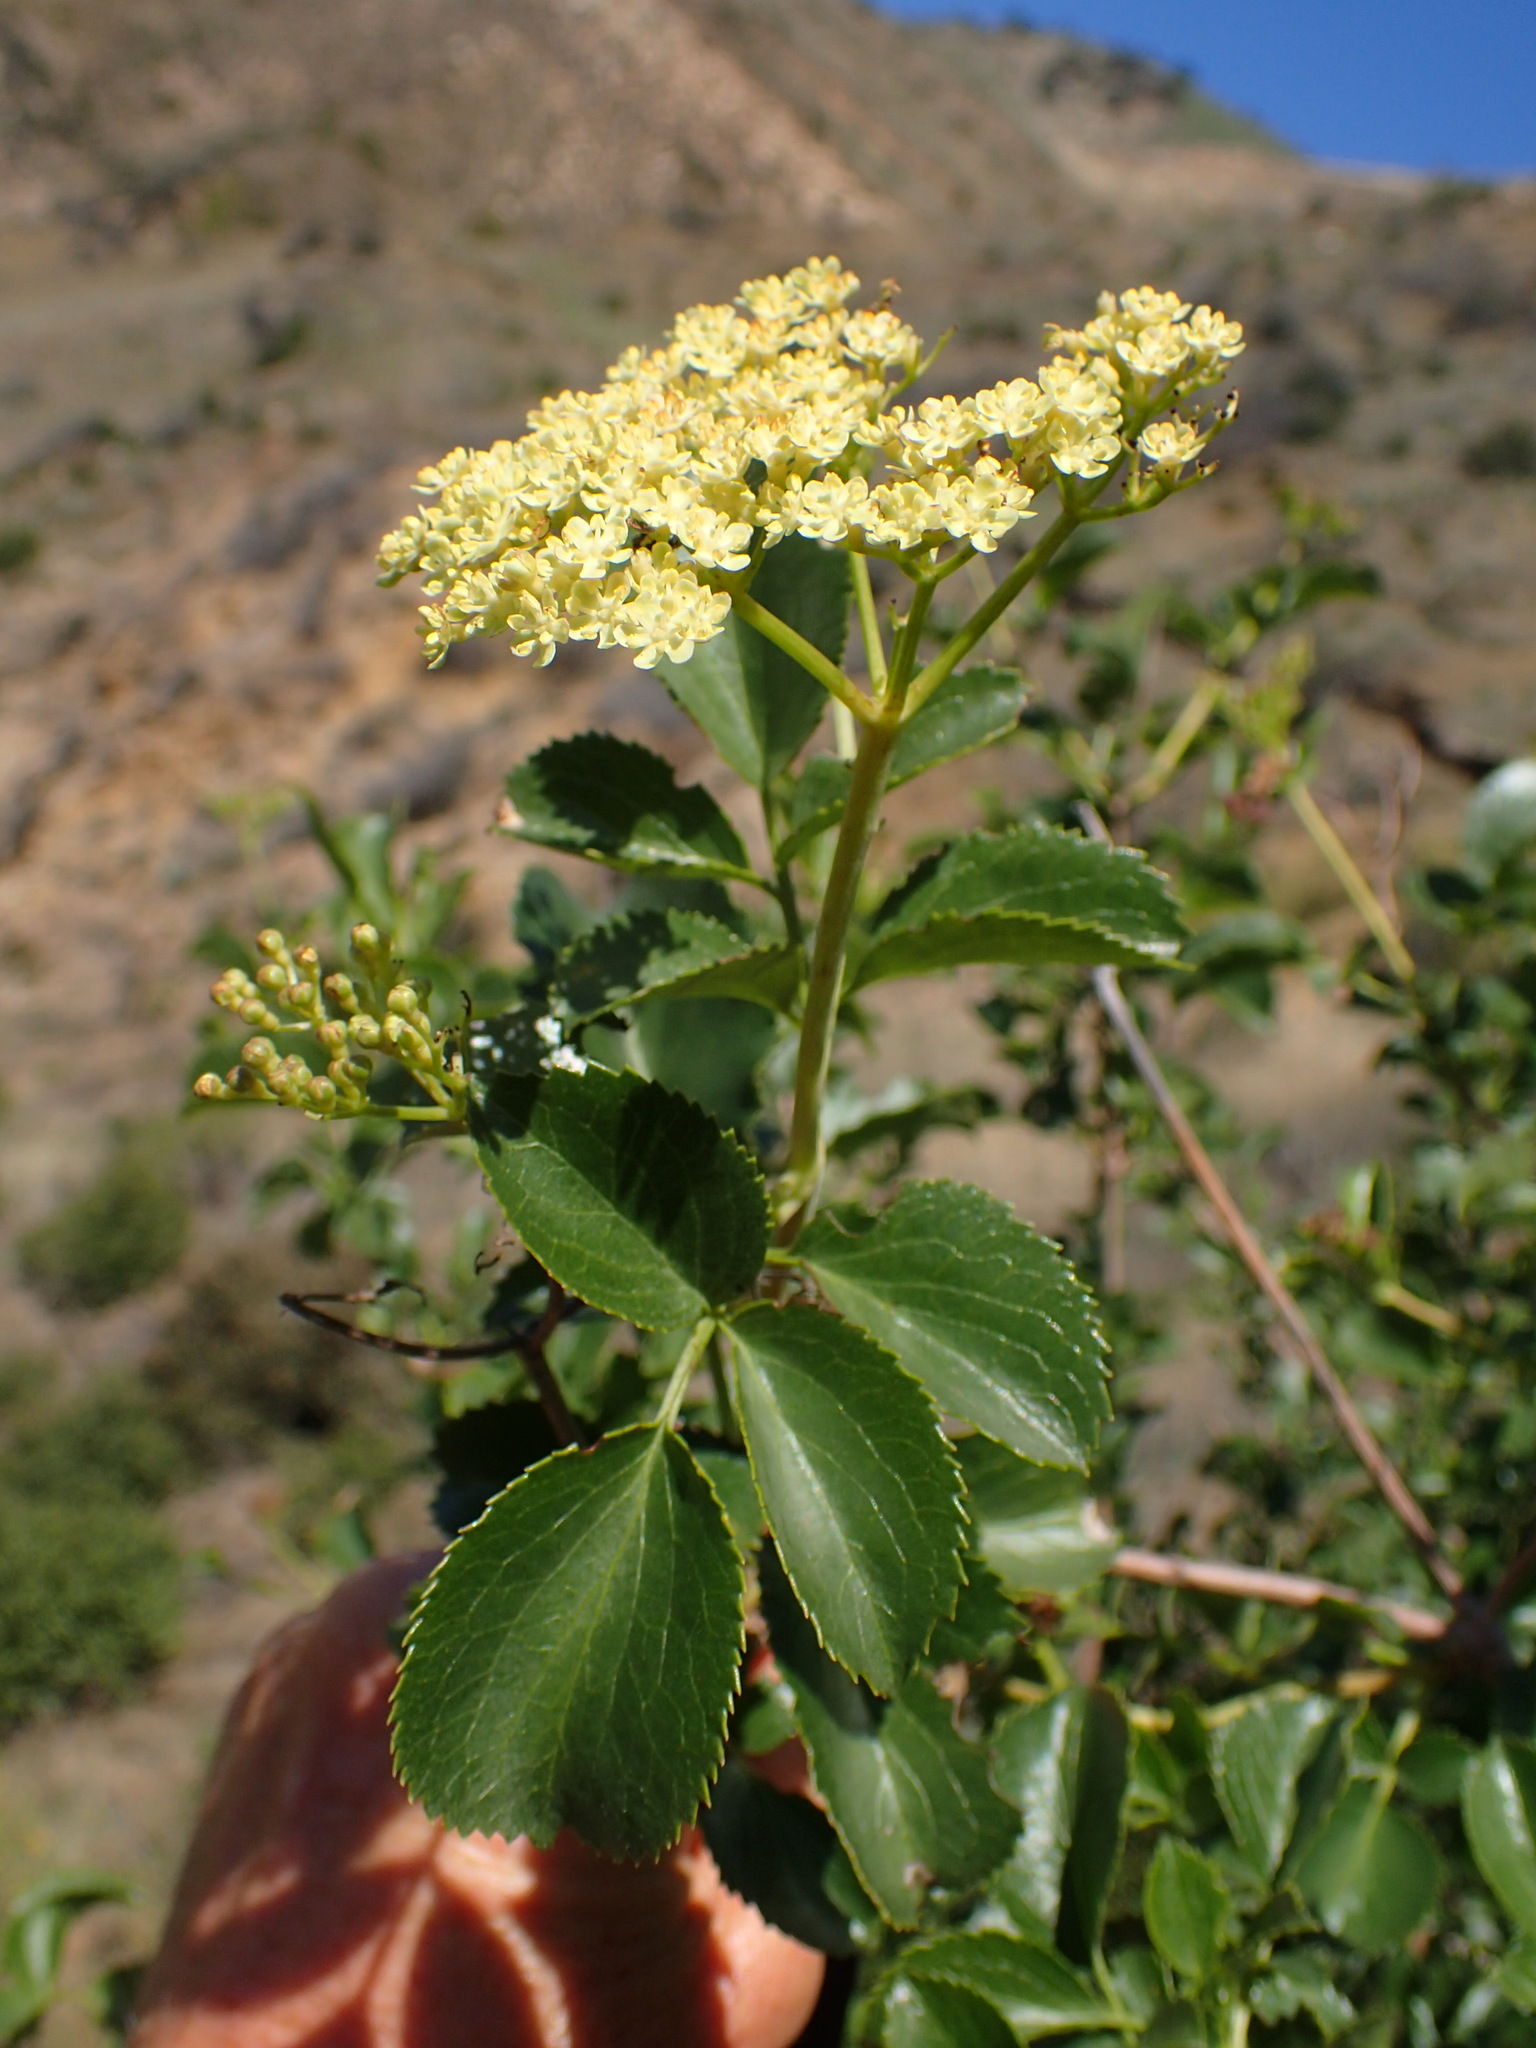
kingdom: Plantae
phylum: Tracheophyta
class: Magnoliopsida
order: Dipsacales
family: Viburnaceae
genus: Sambucus
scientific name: Sambucus cerulea
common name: Blue elder
